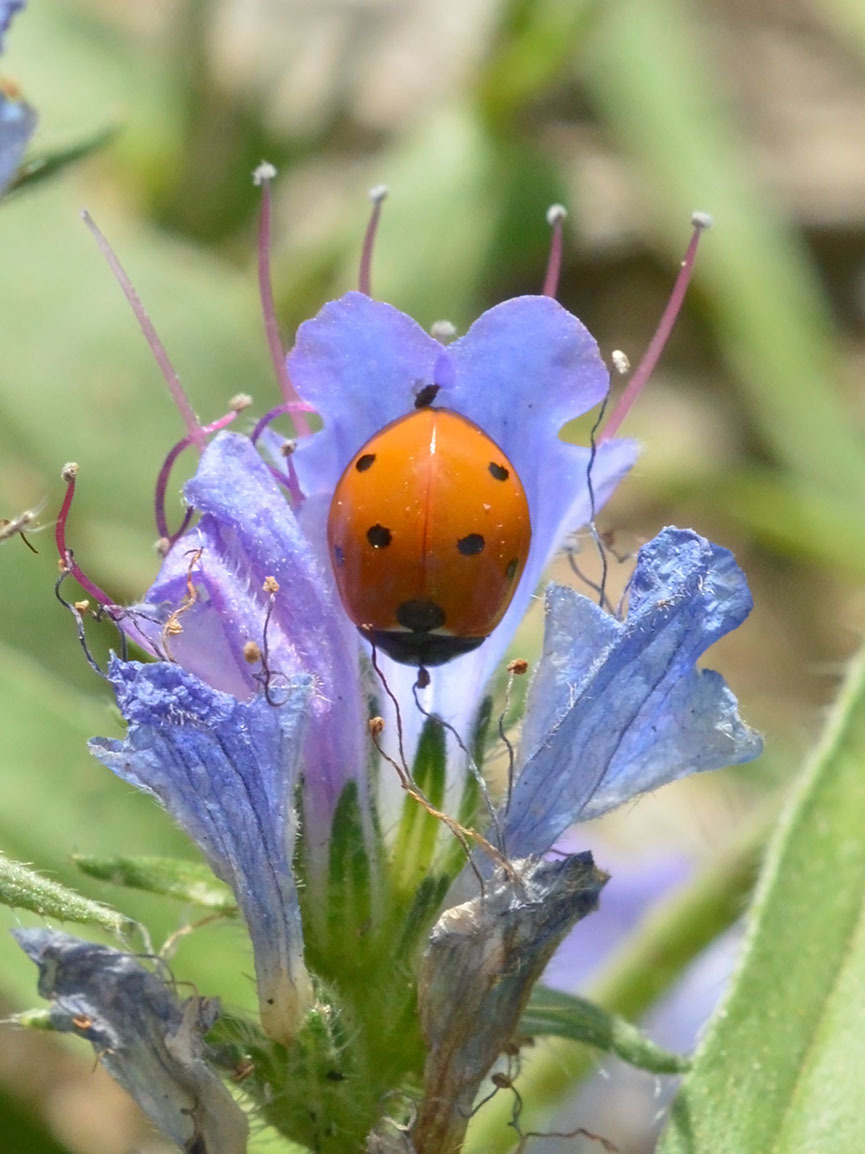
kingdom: Animalia
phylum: Arthropoda
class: Insecta
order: Coleoptera
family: Coccinellidae
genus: Coccinella
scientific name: Coccinella septempunctata
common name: Sevenspotted lady beetle
